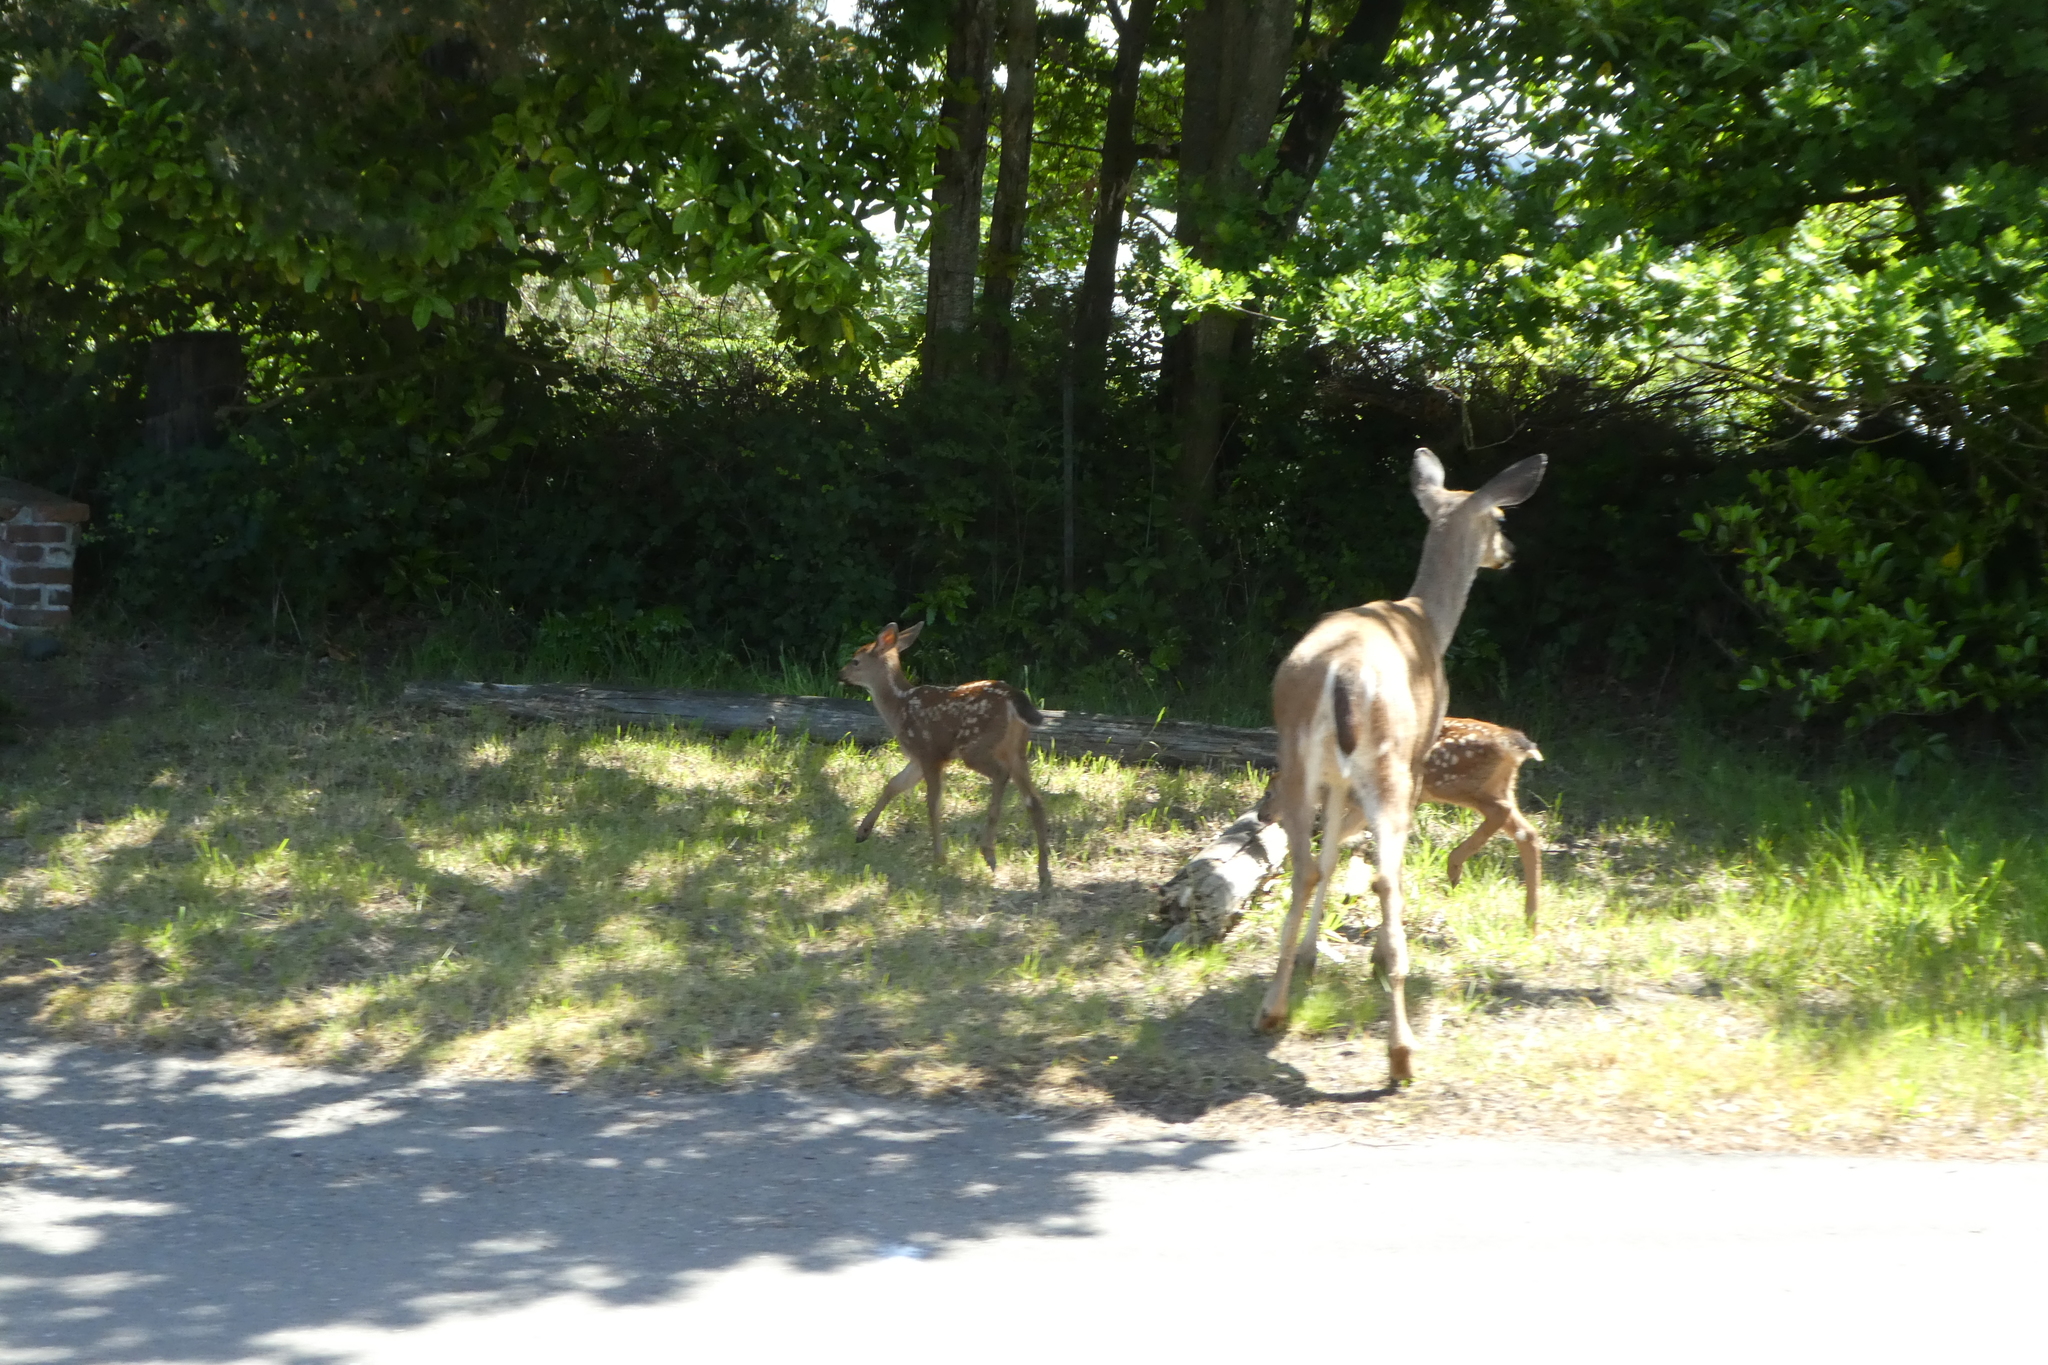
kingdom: Animalia
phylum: Chordata
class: Mammalia
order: Artiodactyla
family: Cervidae
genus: Odocoileus
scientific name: Odocoileus hemionus
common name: Mule deer
